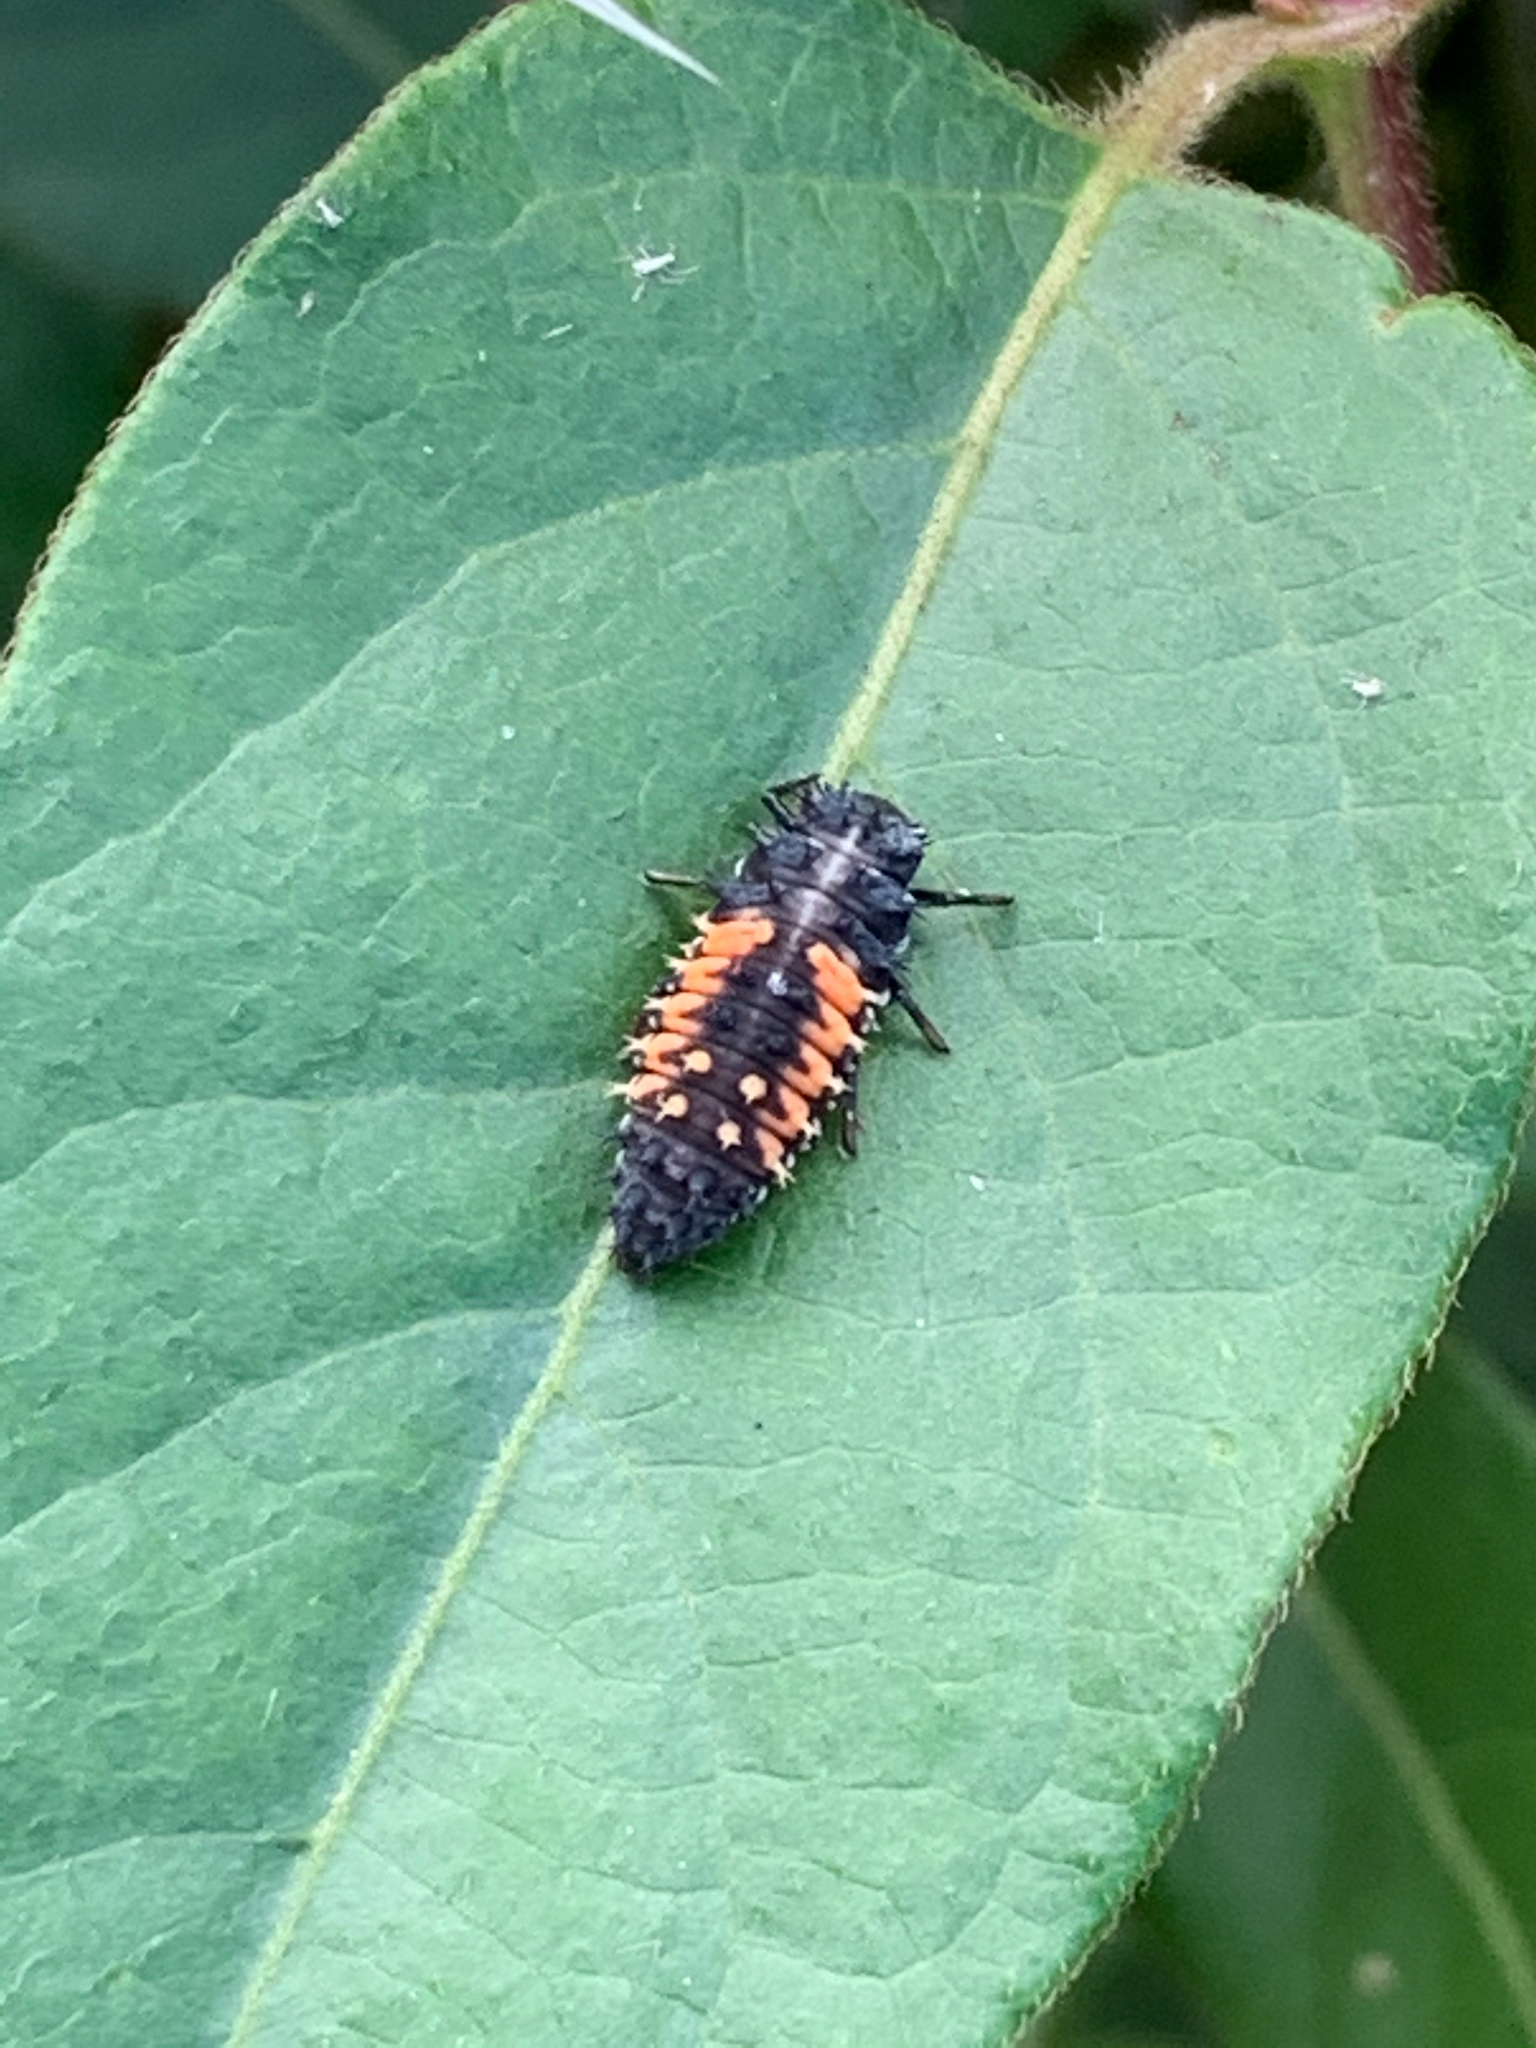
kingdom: Animalia
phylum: Arthropoda
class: Insecta
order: Coleoptera
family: Coccinellidae
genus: Harmonia
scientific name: Harmonia axyridis
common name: Harlequin ladybird
